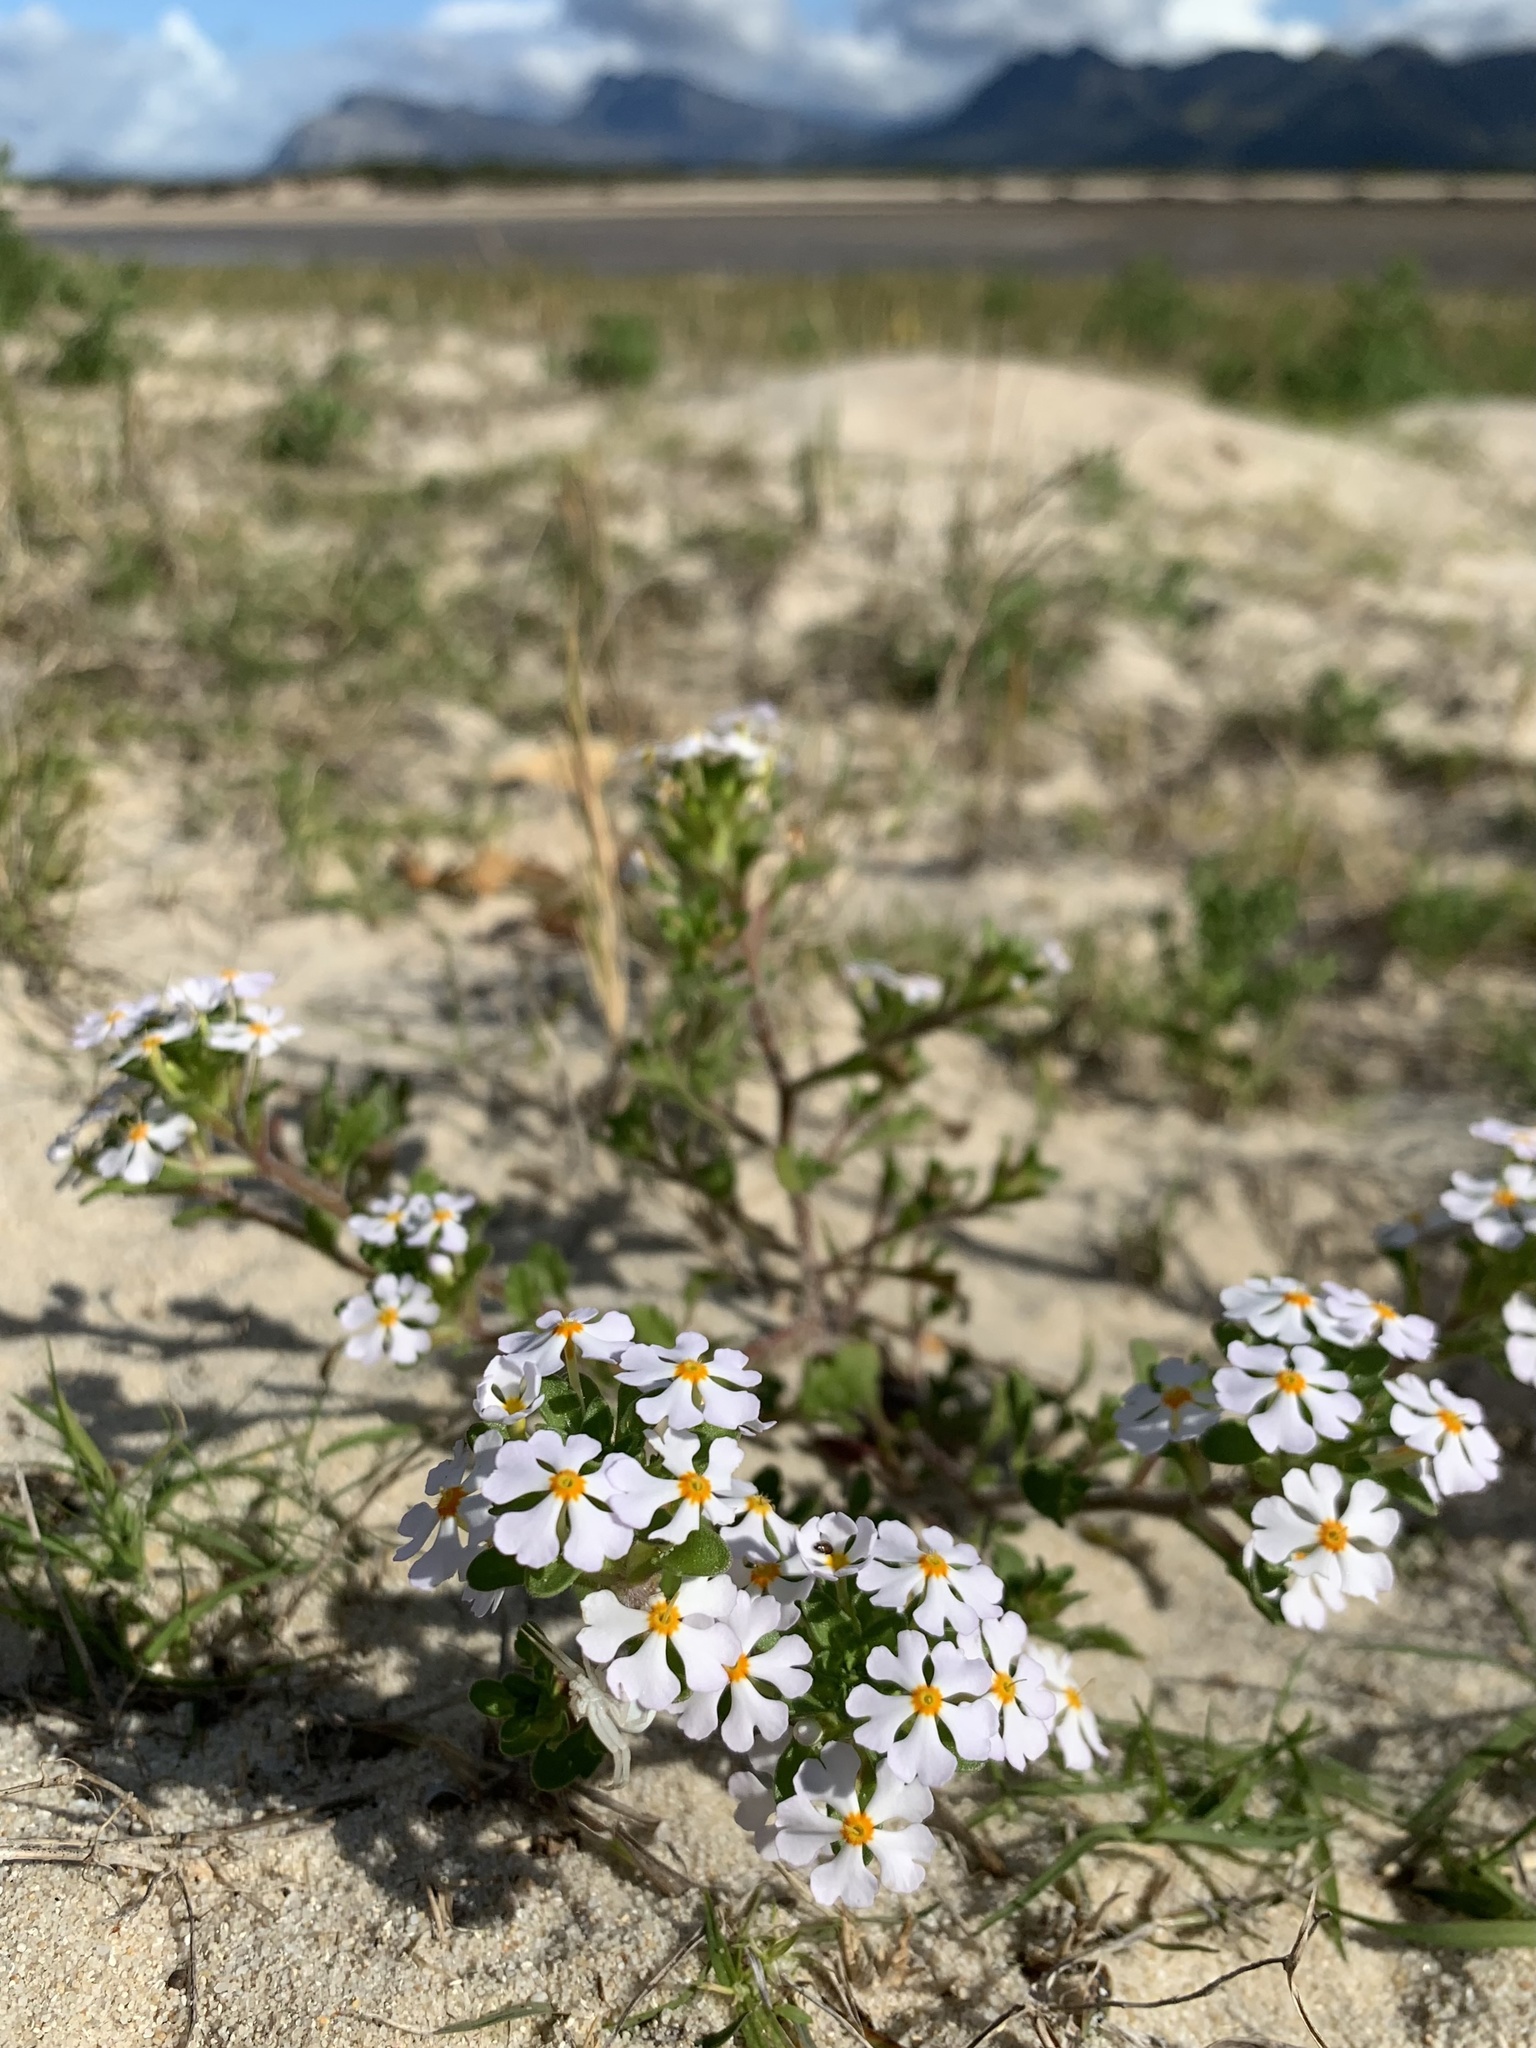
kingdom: Plantae
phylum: Tracheophyta
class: Magnoliopsida
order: Lamiales
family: Scrophulariaceae
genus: Zaluzianskya
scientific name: Zaluzianskya villosa
